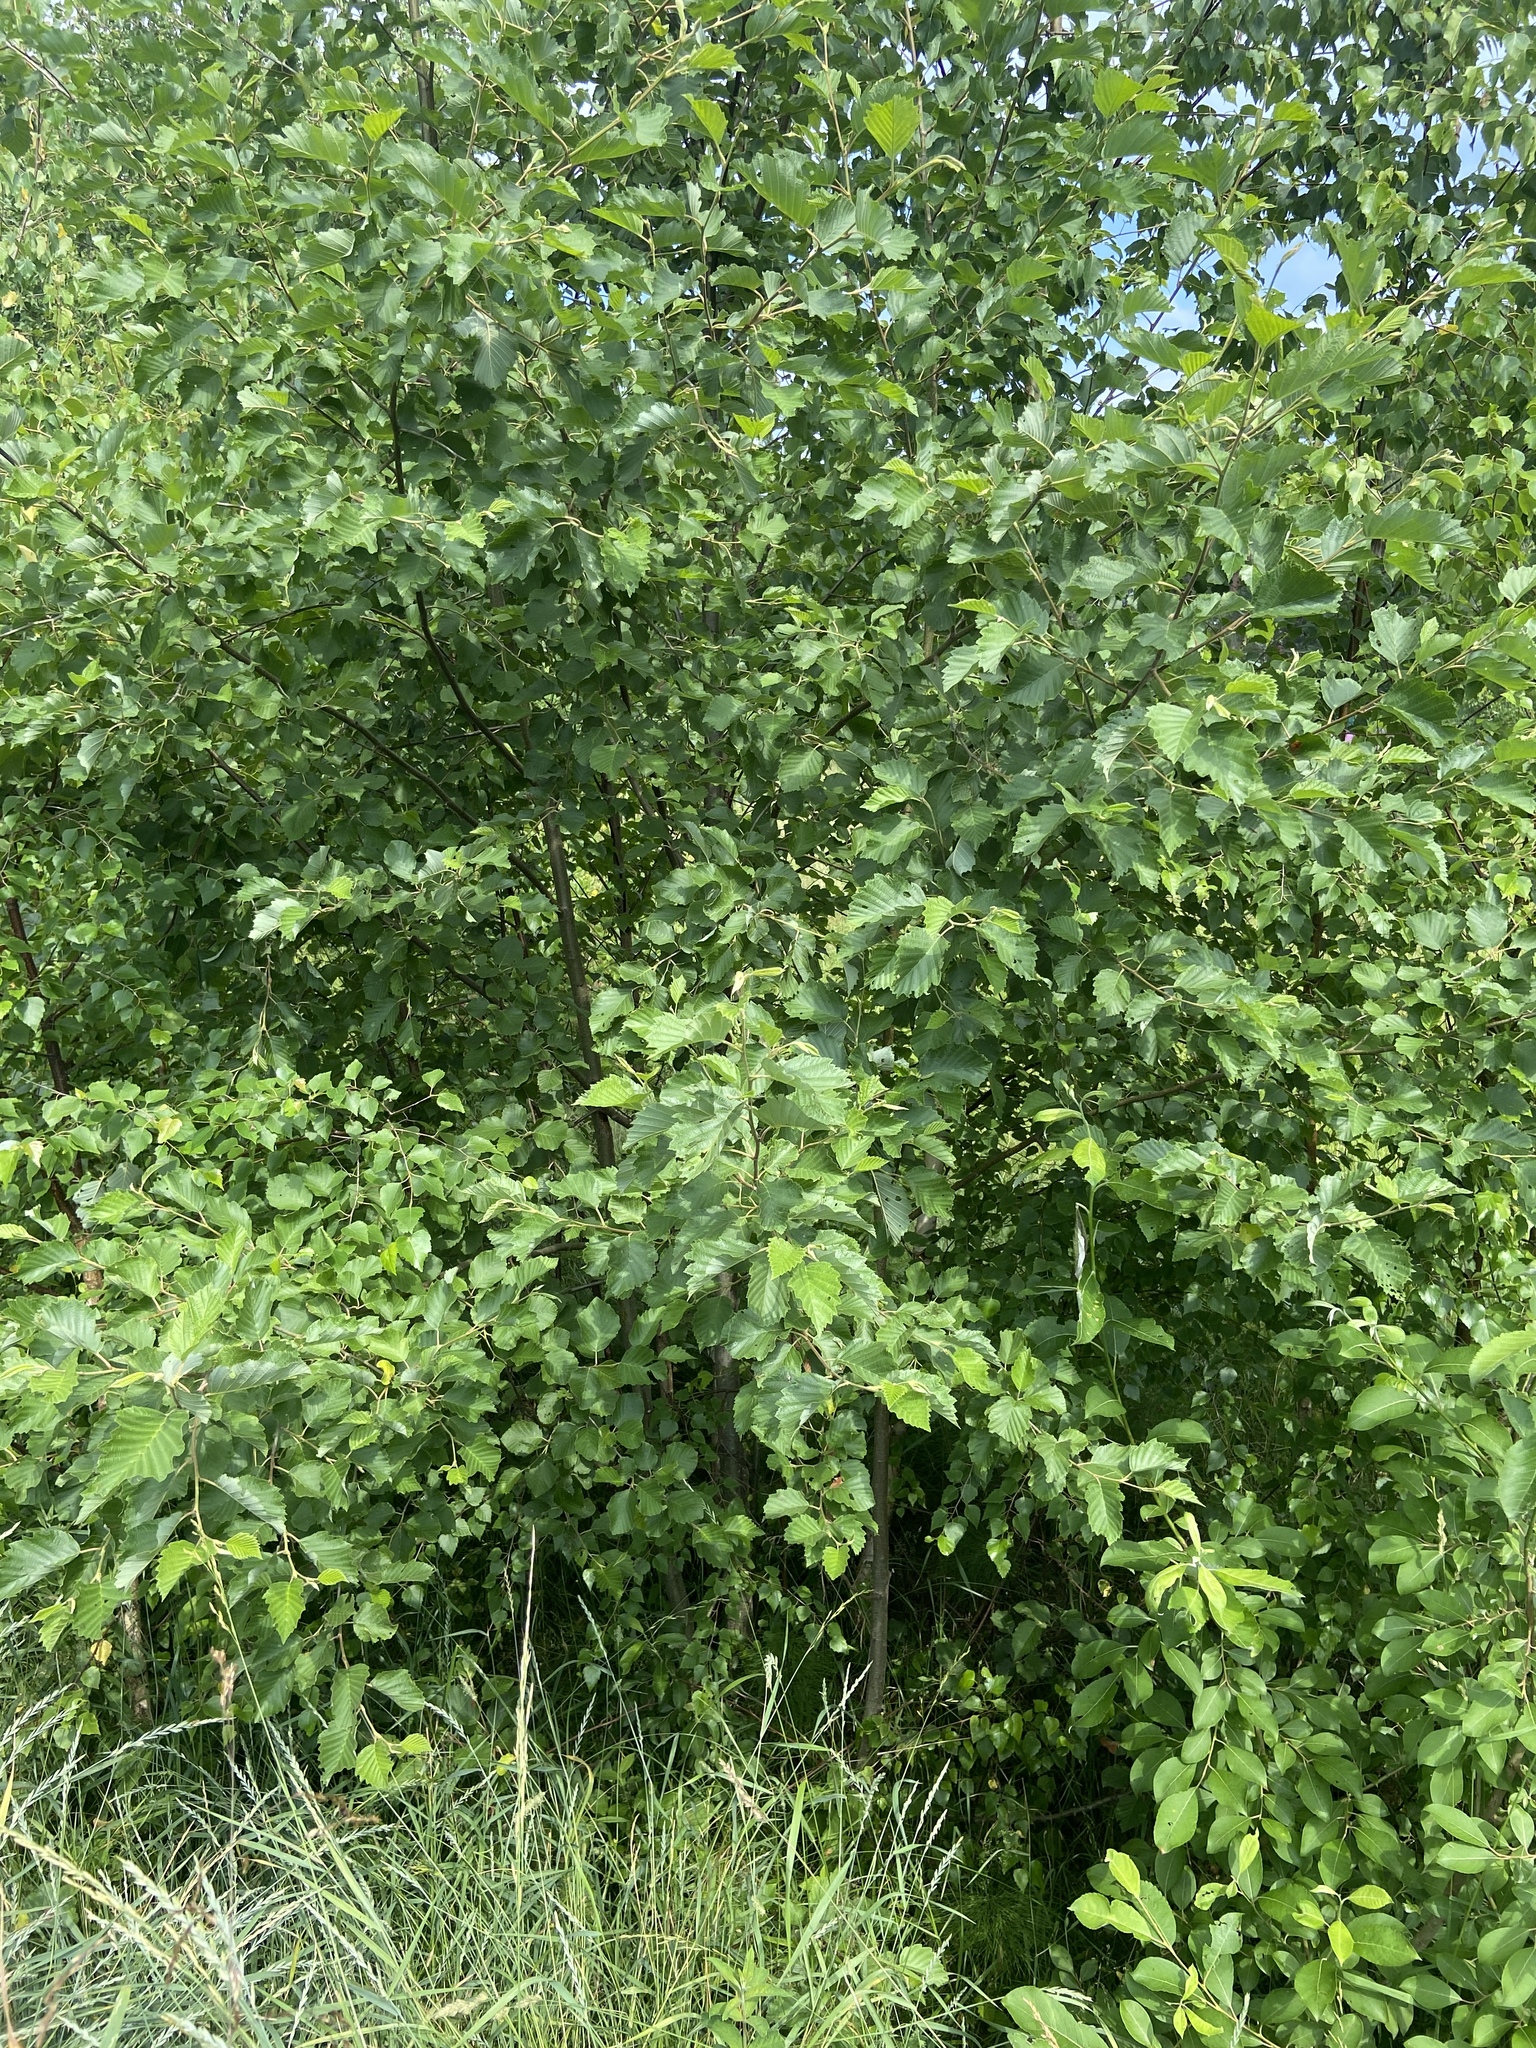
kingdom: Plantae
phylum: Tracheophyta
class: Magnoliopsida
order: Fagales
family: Betulaceae
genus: Alnus
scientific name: Alnus incana
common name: Grey alder
